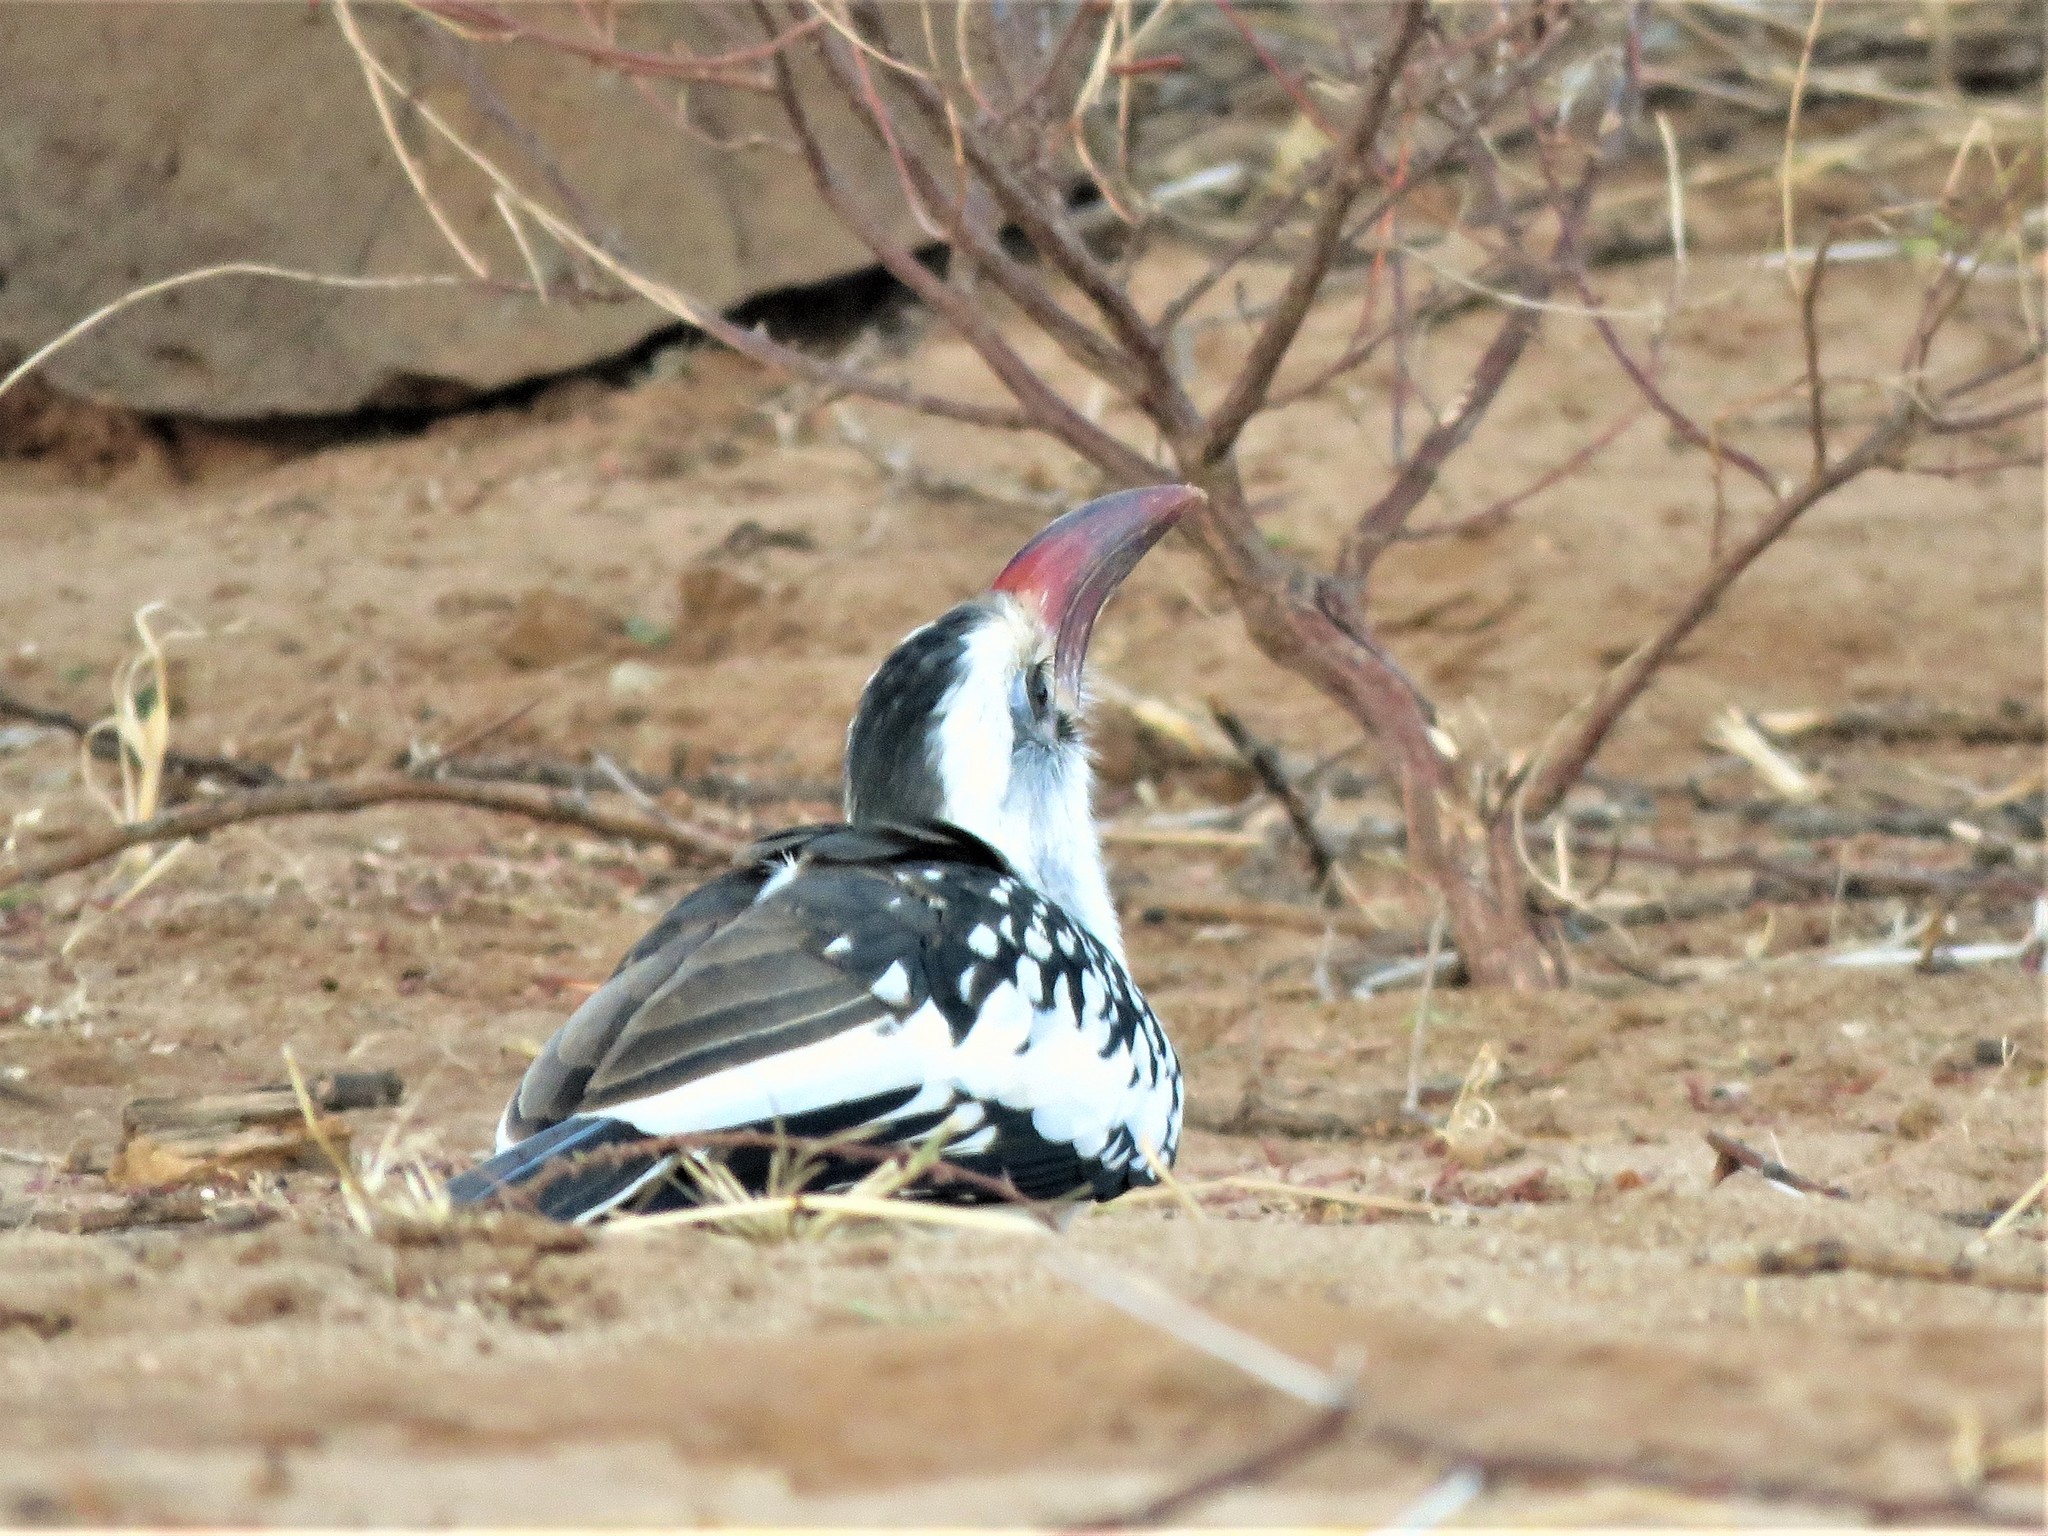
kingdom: Animalia
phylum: Chordata
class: Aves
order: Bucerotiformes
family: Bucerotidae
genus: Tockus
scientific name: Tockus erythrorhynchus
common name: Northern red-billed hornbill
